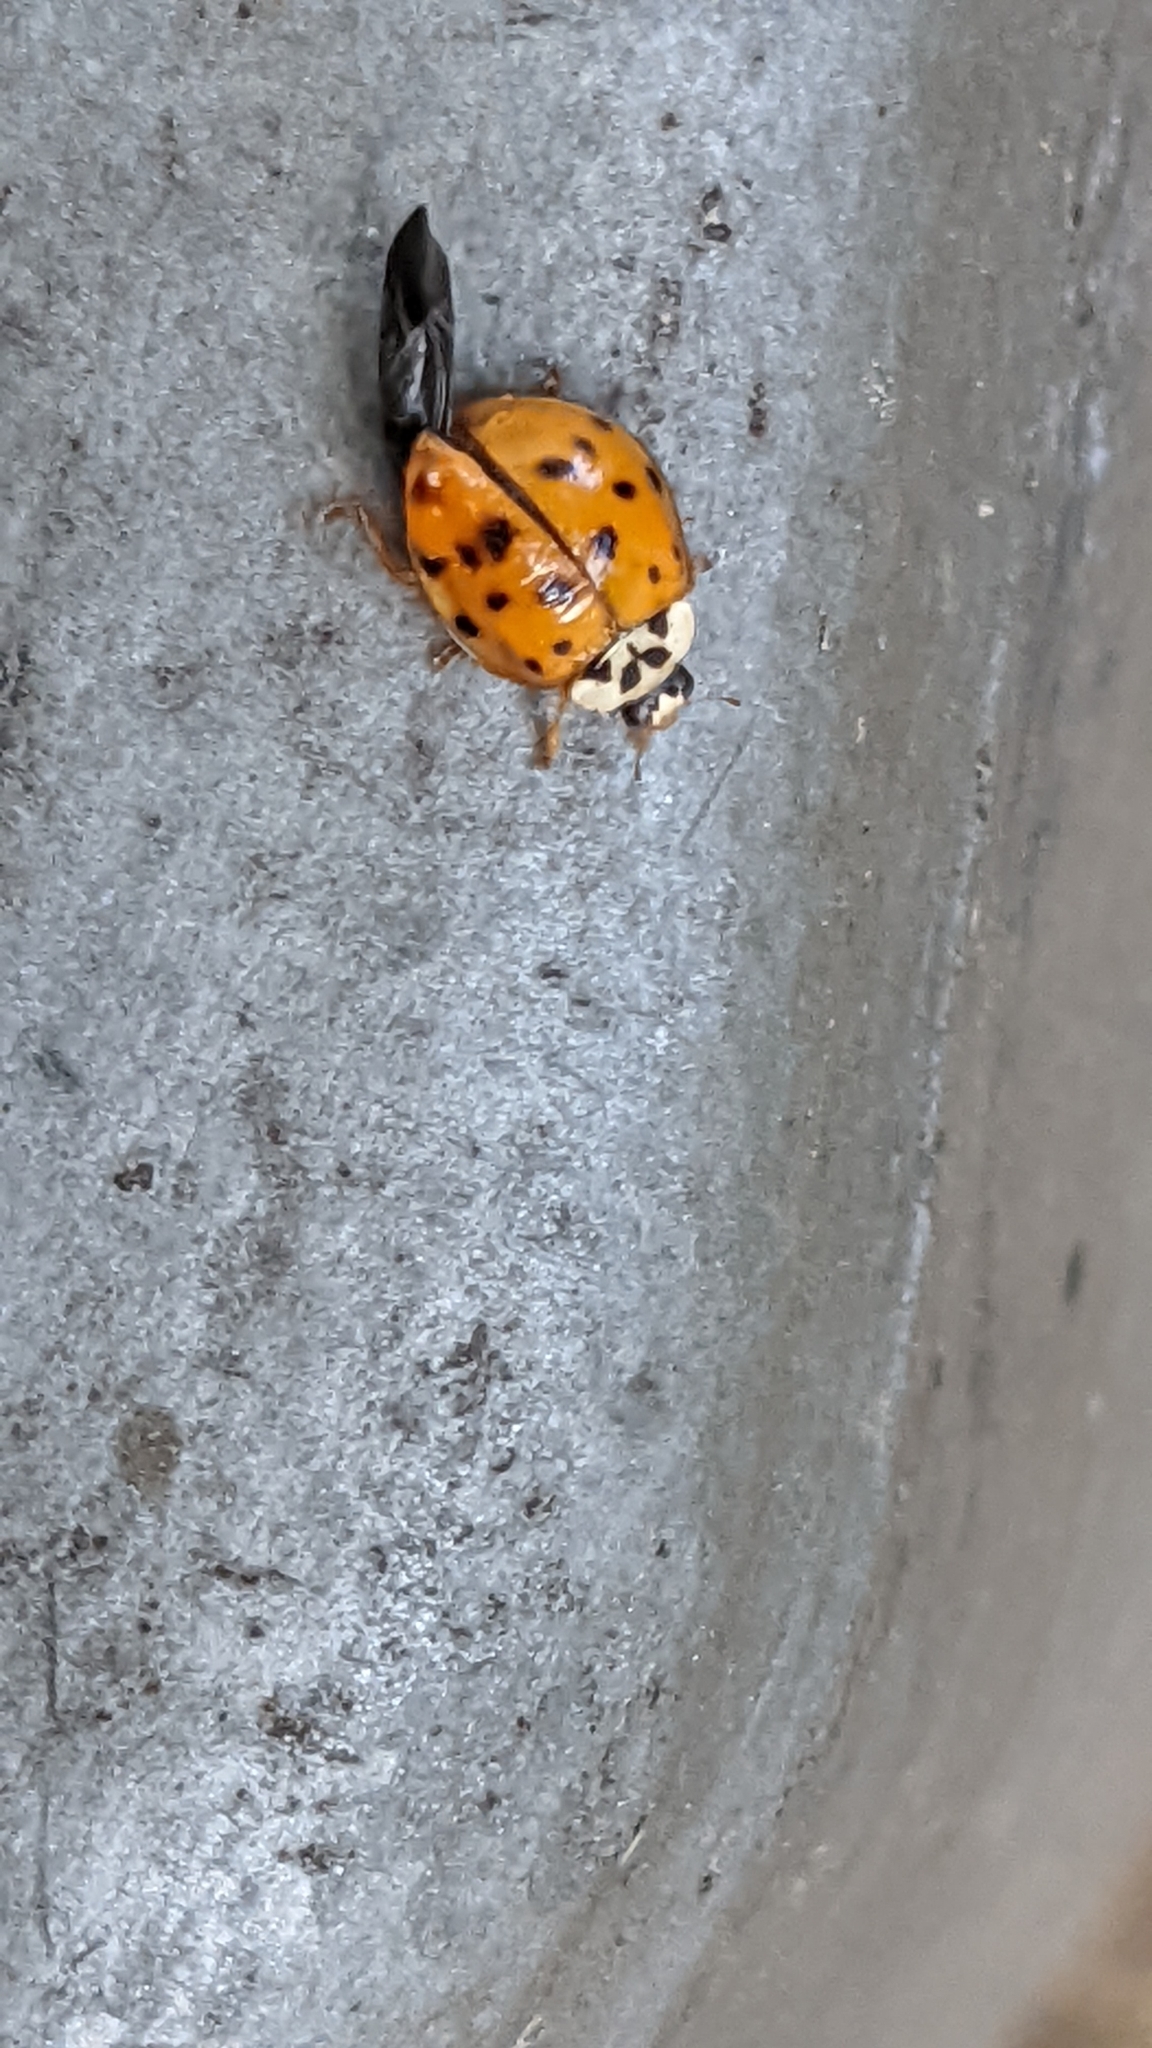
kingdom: Animalia
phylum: Arthropoda
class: Insecta
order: Coleoptera
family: Coccinellidae
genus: Harmonia
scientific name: Harmonia axyridis
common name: Harlequin ladybird
